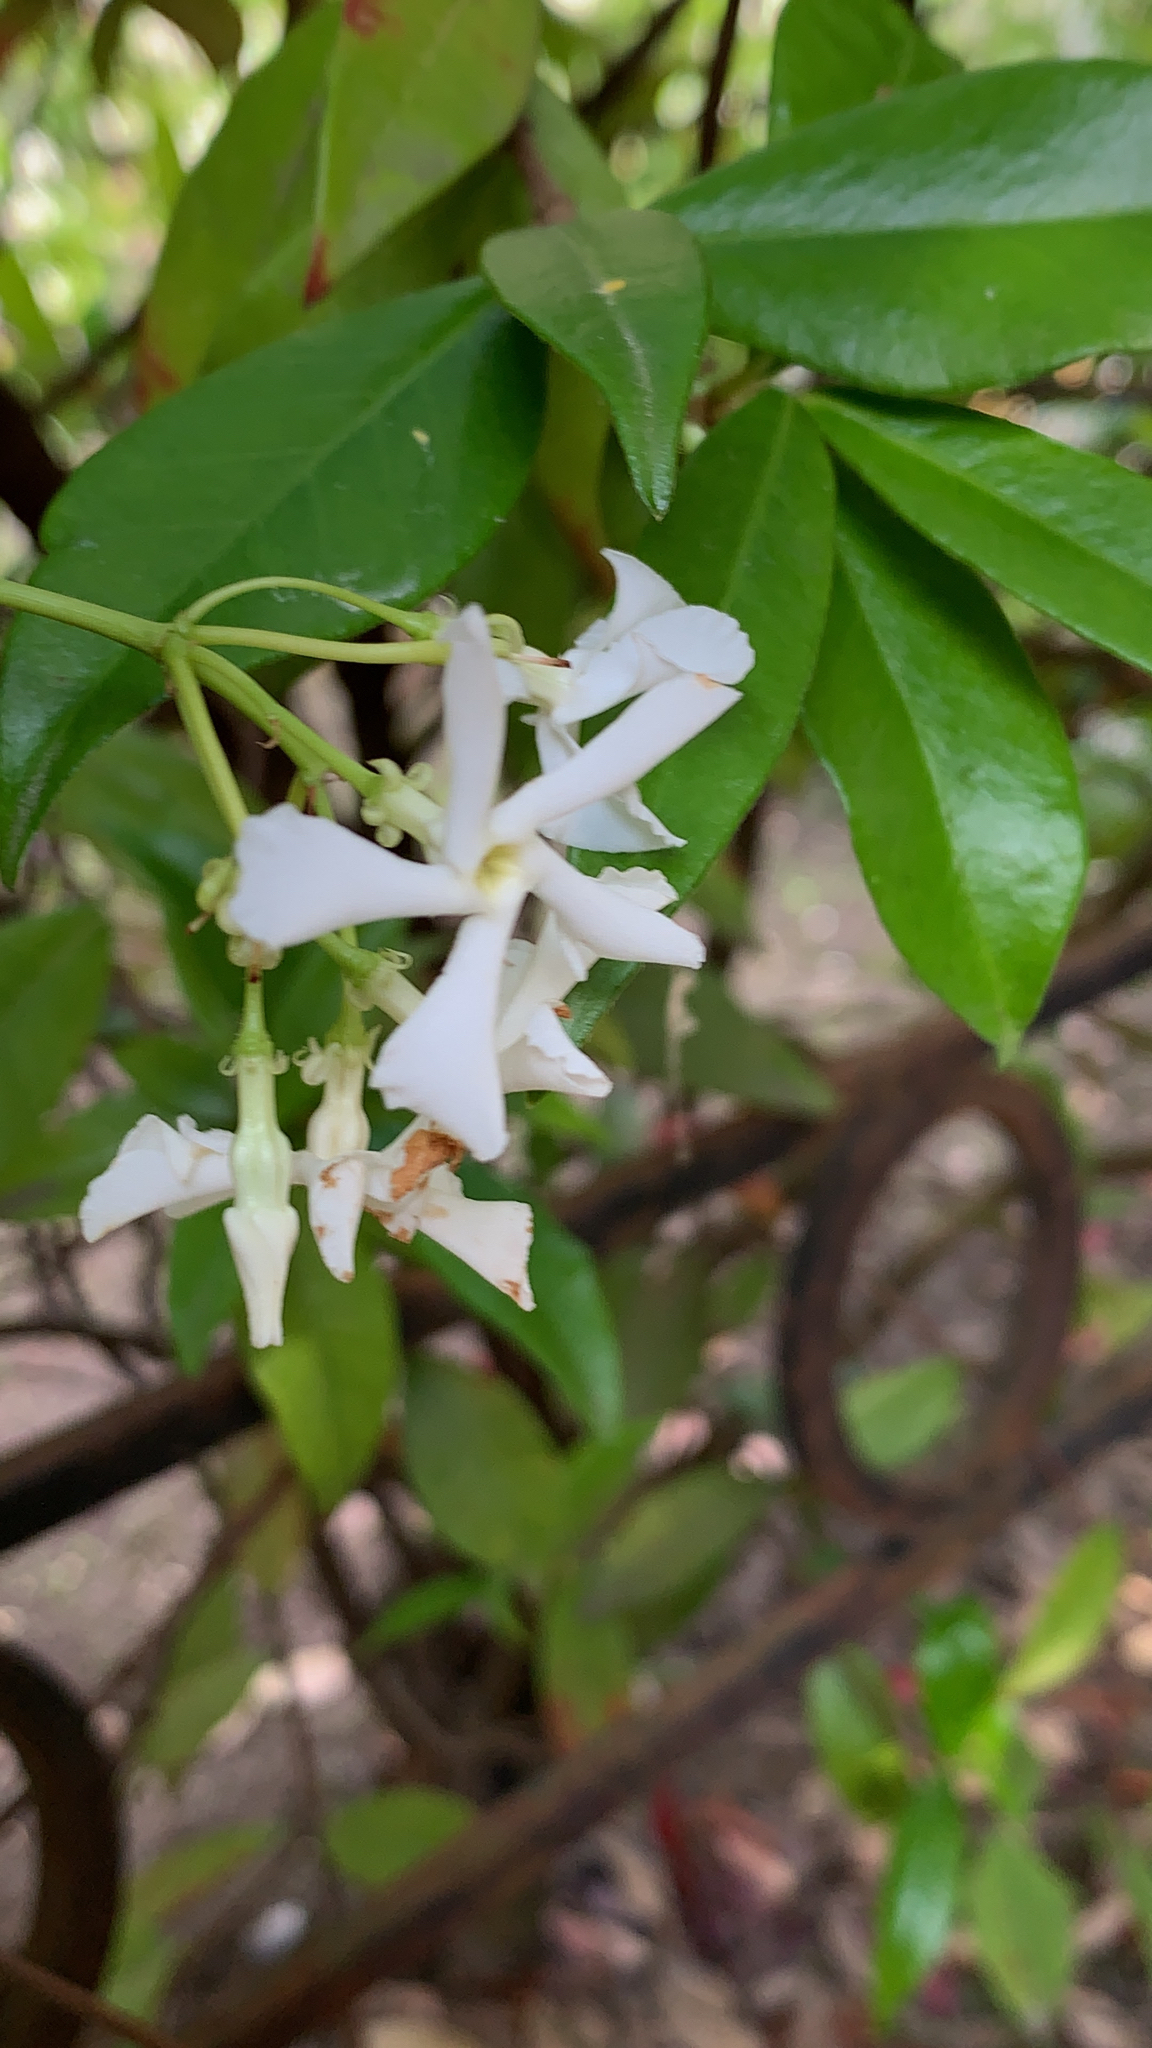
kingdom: Plantae
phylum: Tracheophyta
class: Magnoliopsida
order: Gentianales
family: Apocynaceae
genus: Trachelospermum
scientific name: Trachelospermum jasminoides
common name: Confederate jasmine
